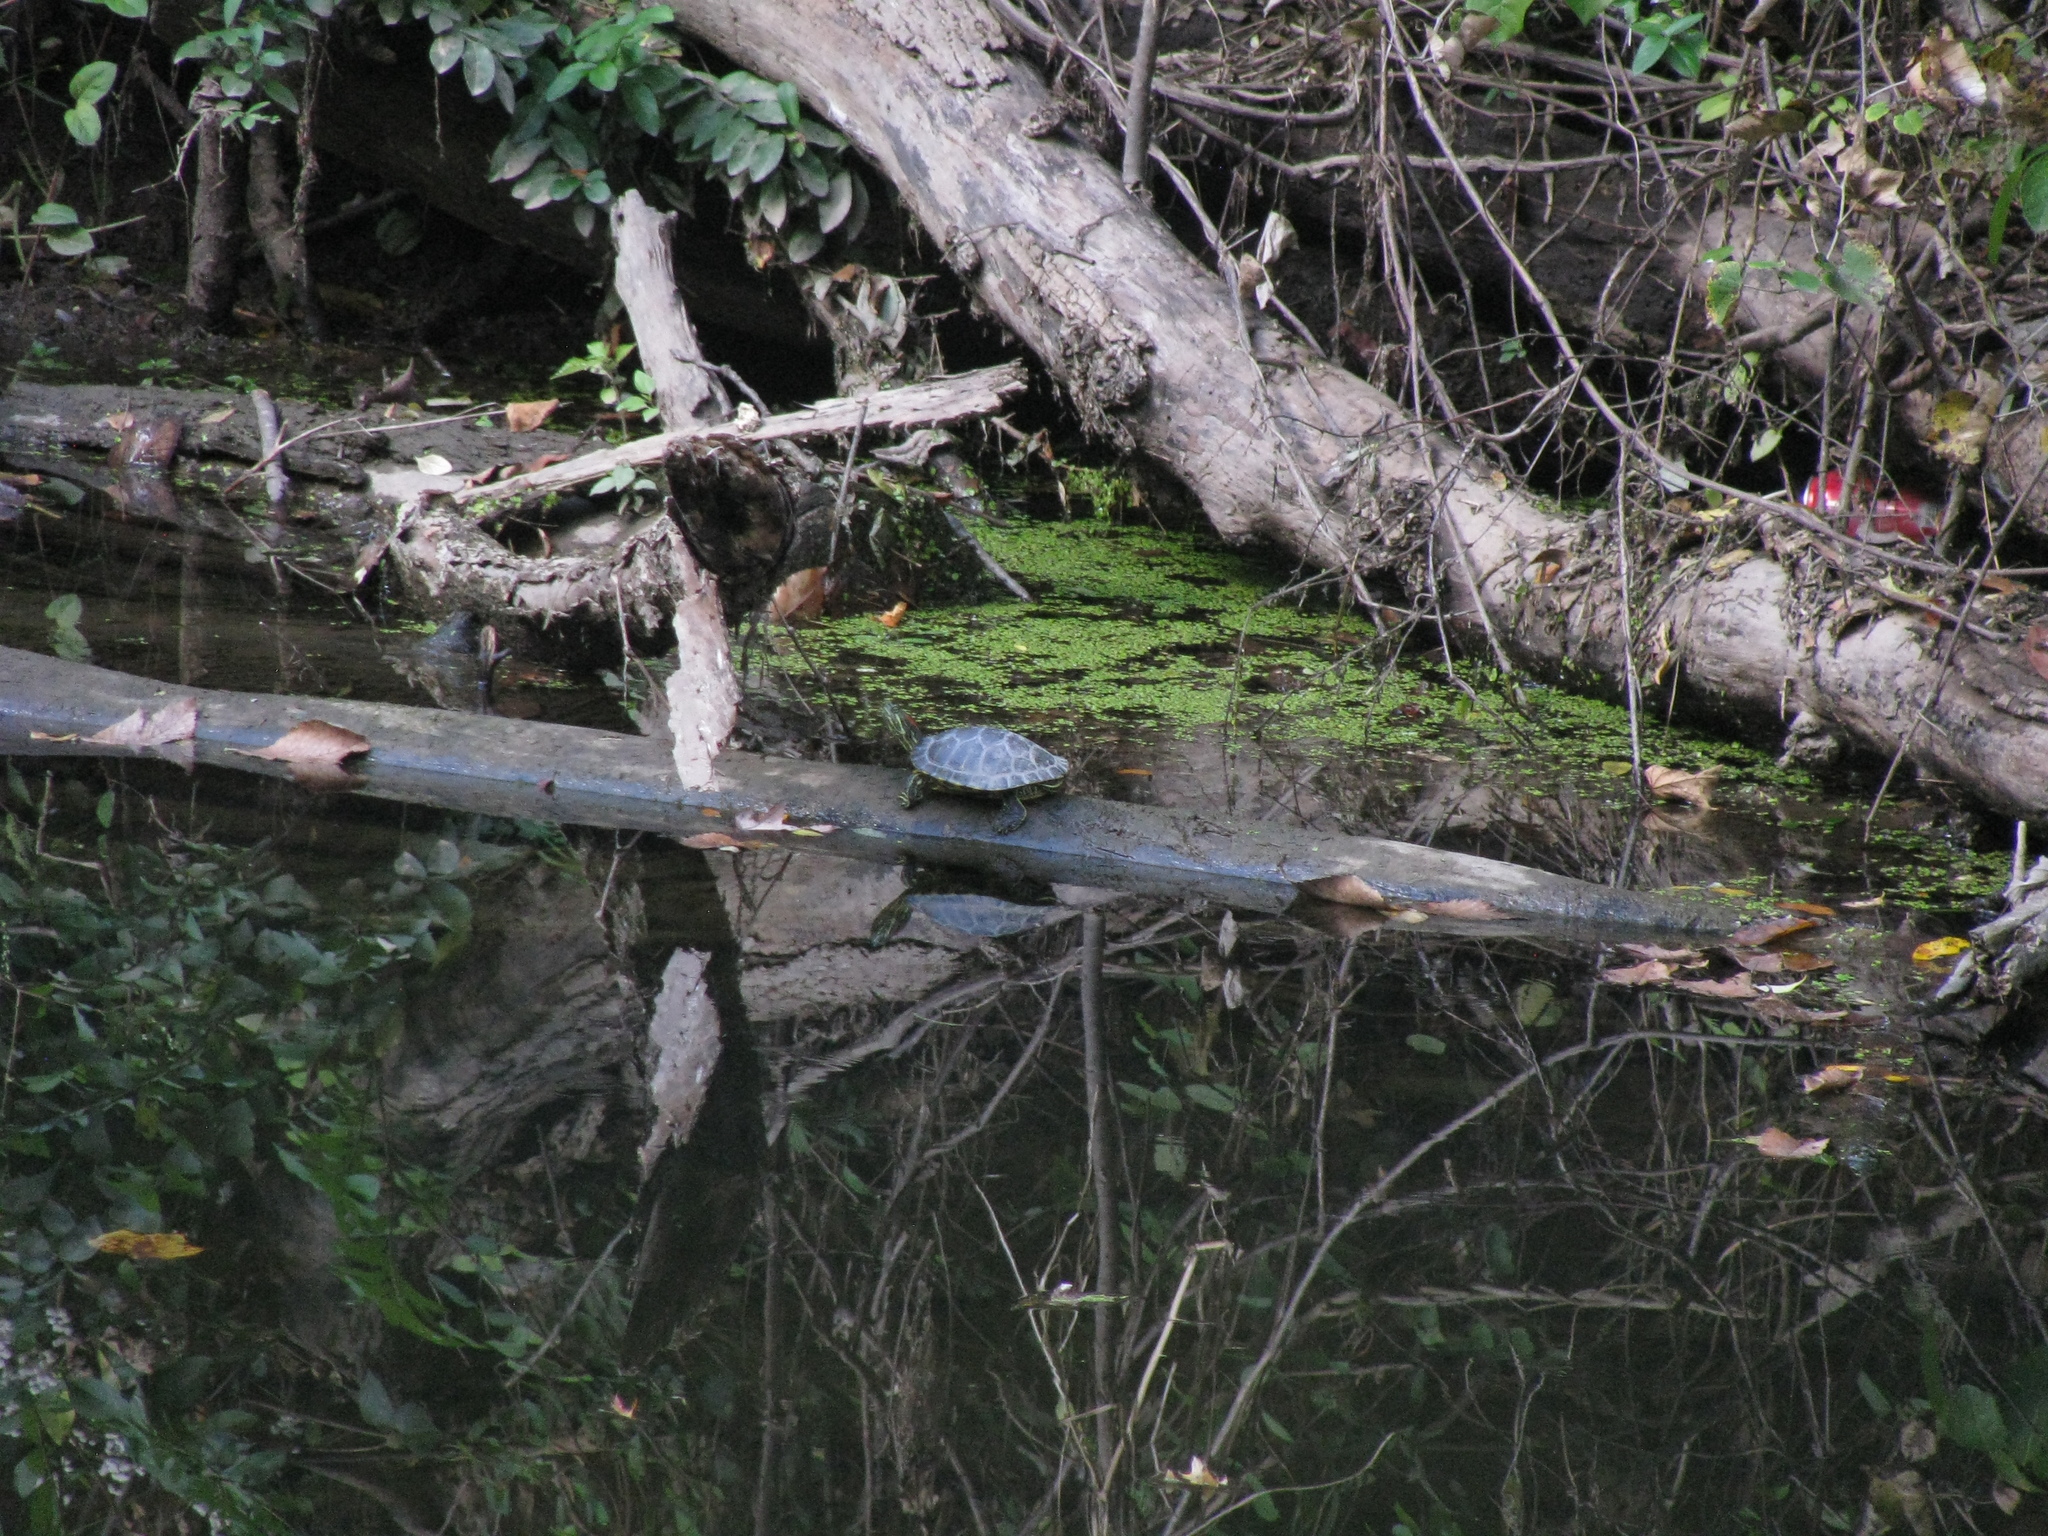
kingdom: Animalia
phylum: Chordata
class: Testudines
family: Emydidae
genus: Trachemys
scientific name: Trachemys scripta
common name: Slider
